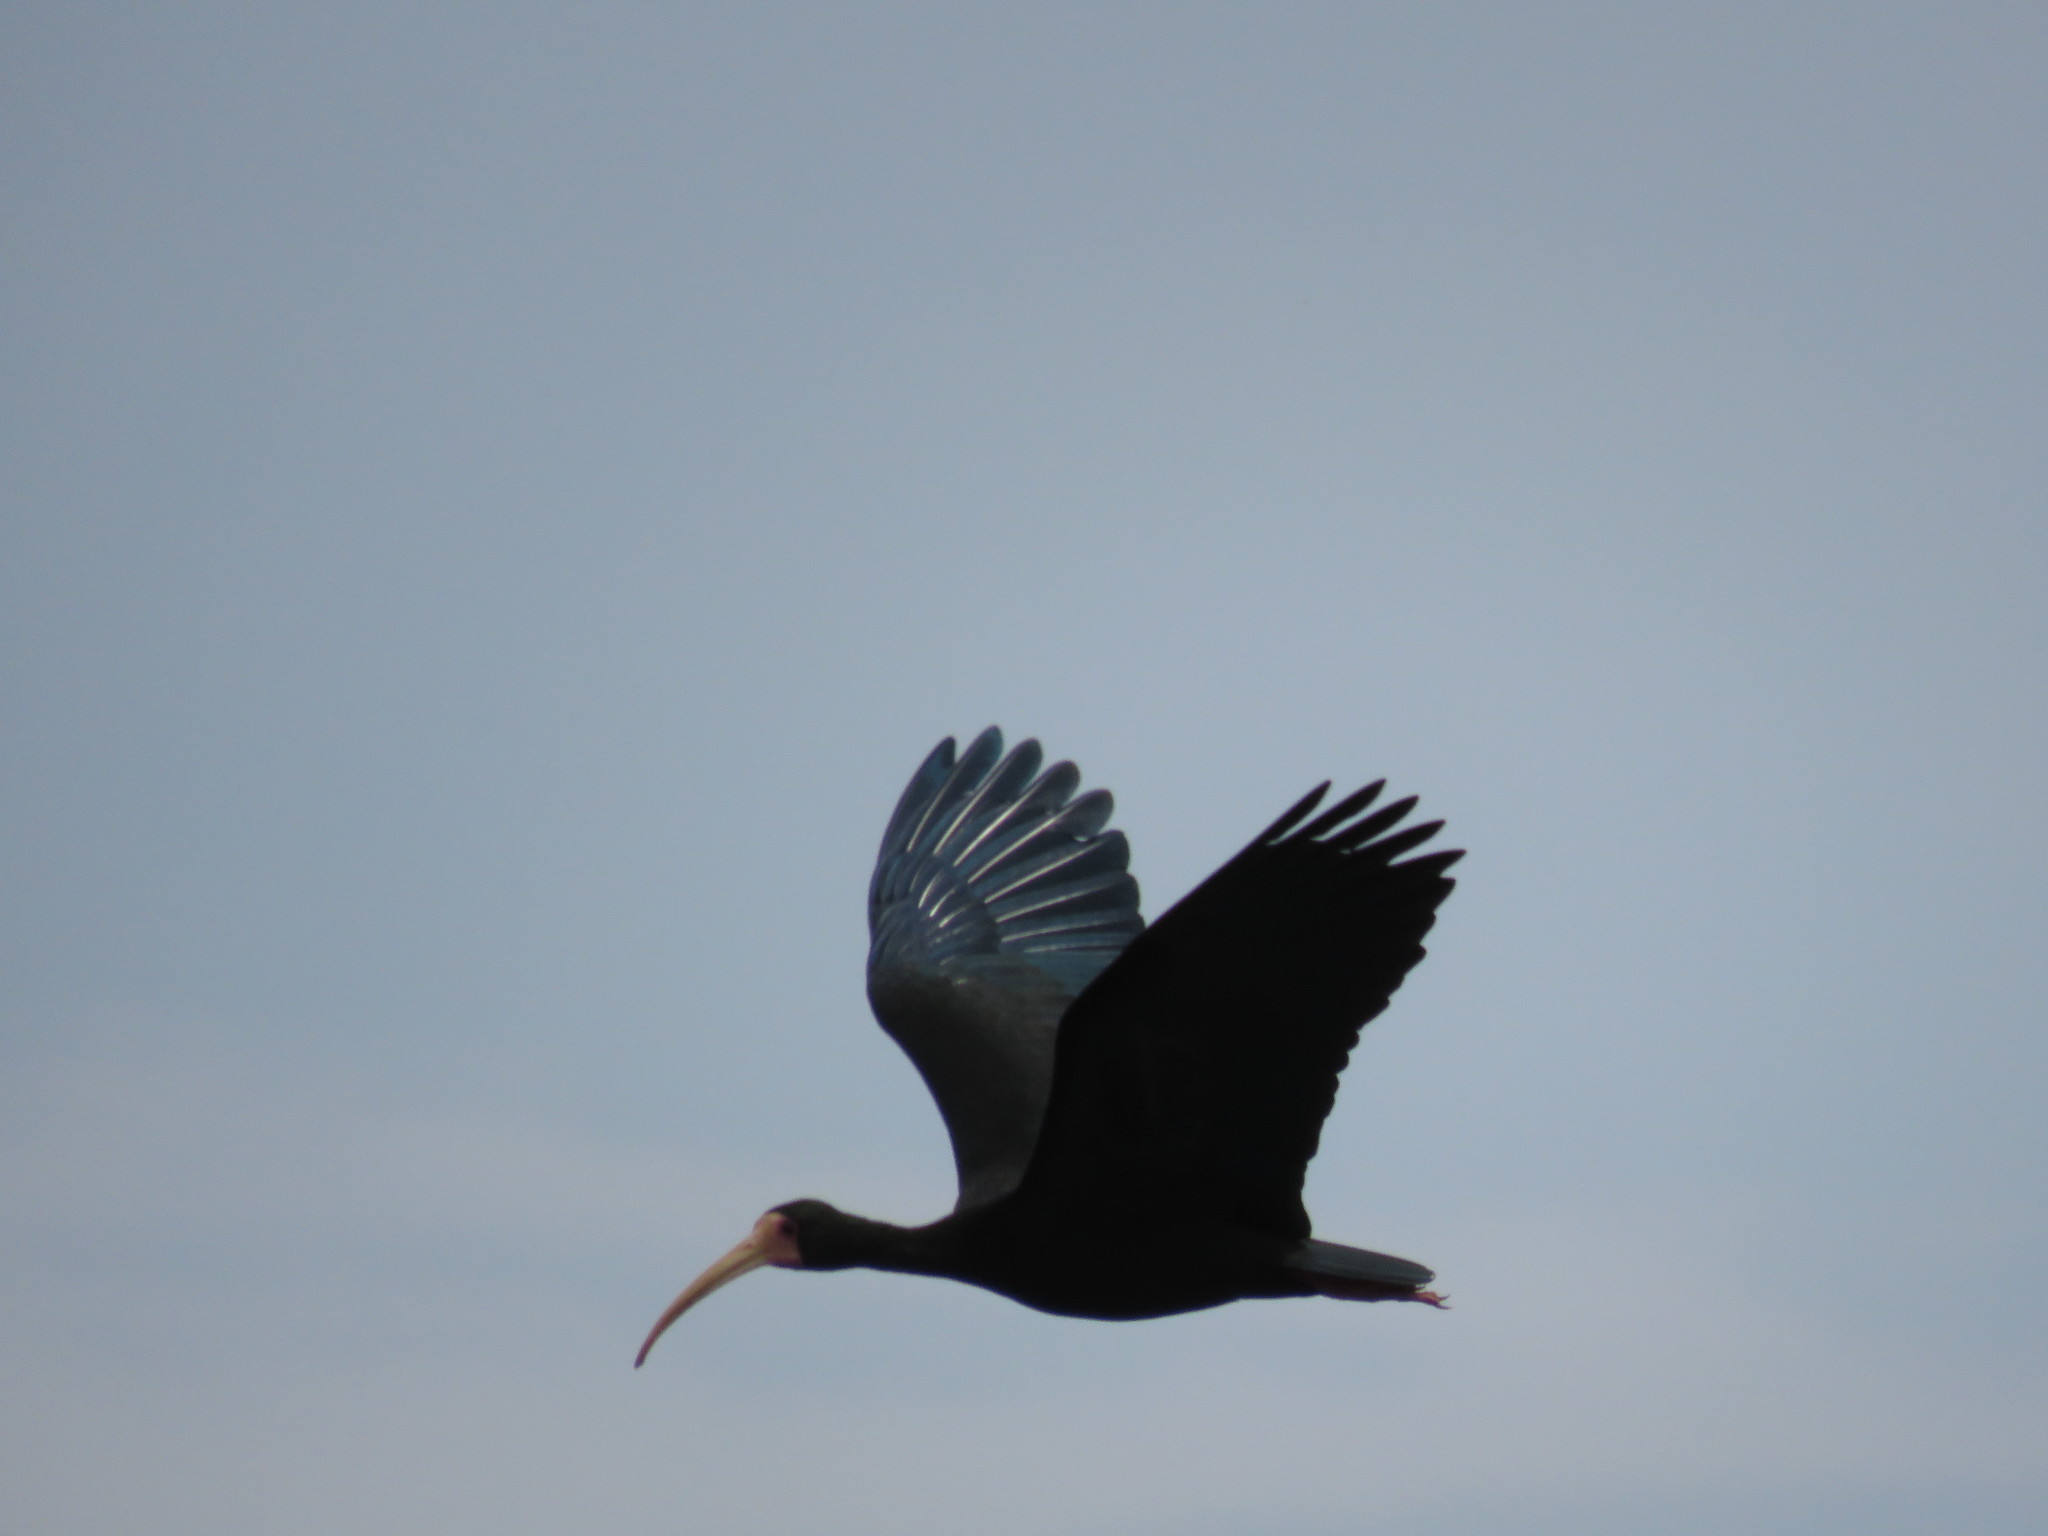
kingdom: Animalia
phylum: Chordata
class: Aves
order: Pelecaniformes
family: Threskiornithidae
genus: Phimosus
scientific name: Phimosus infuscatus
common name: Bare-faced ibis
